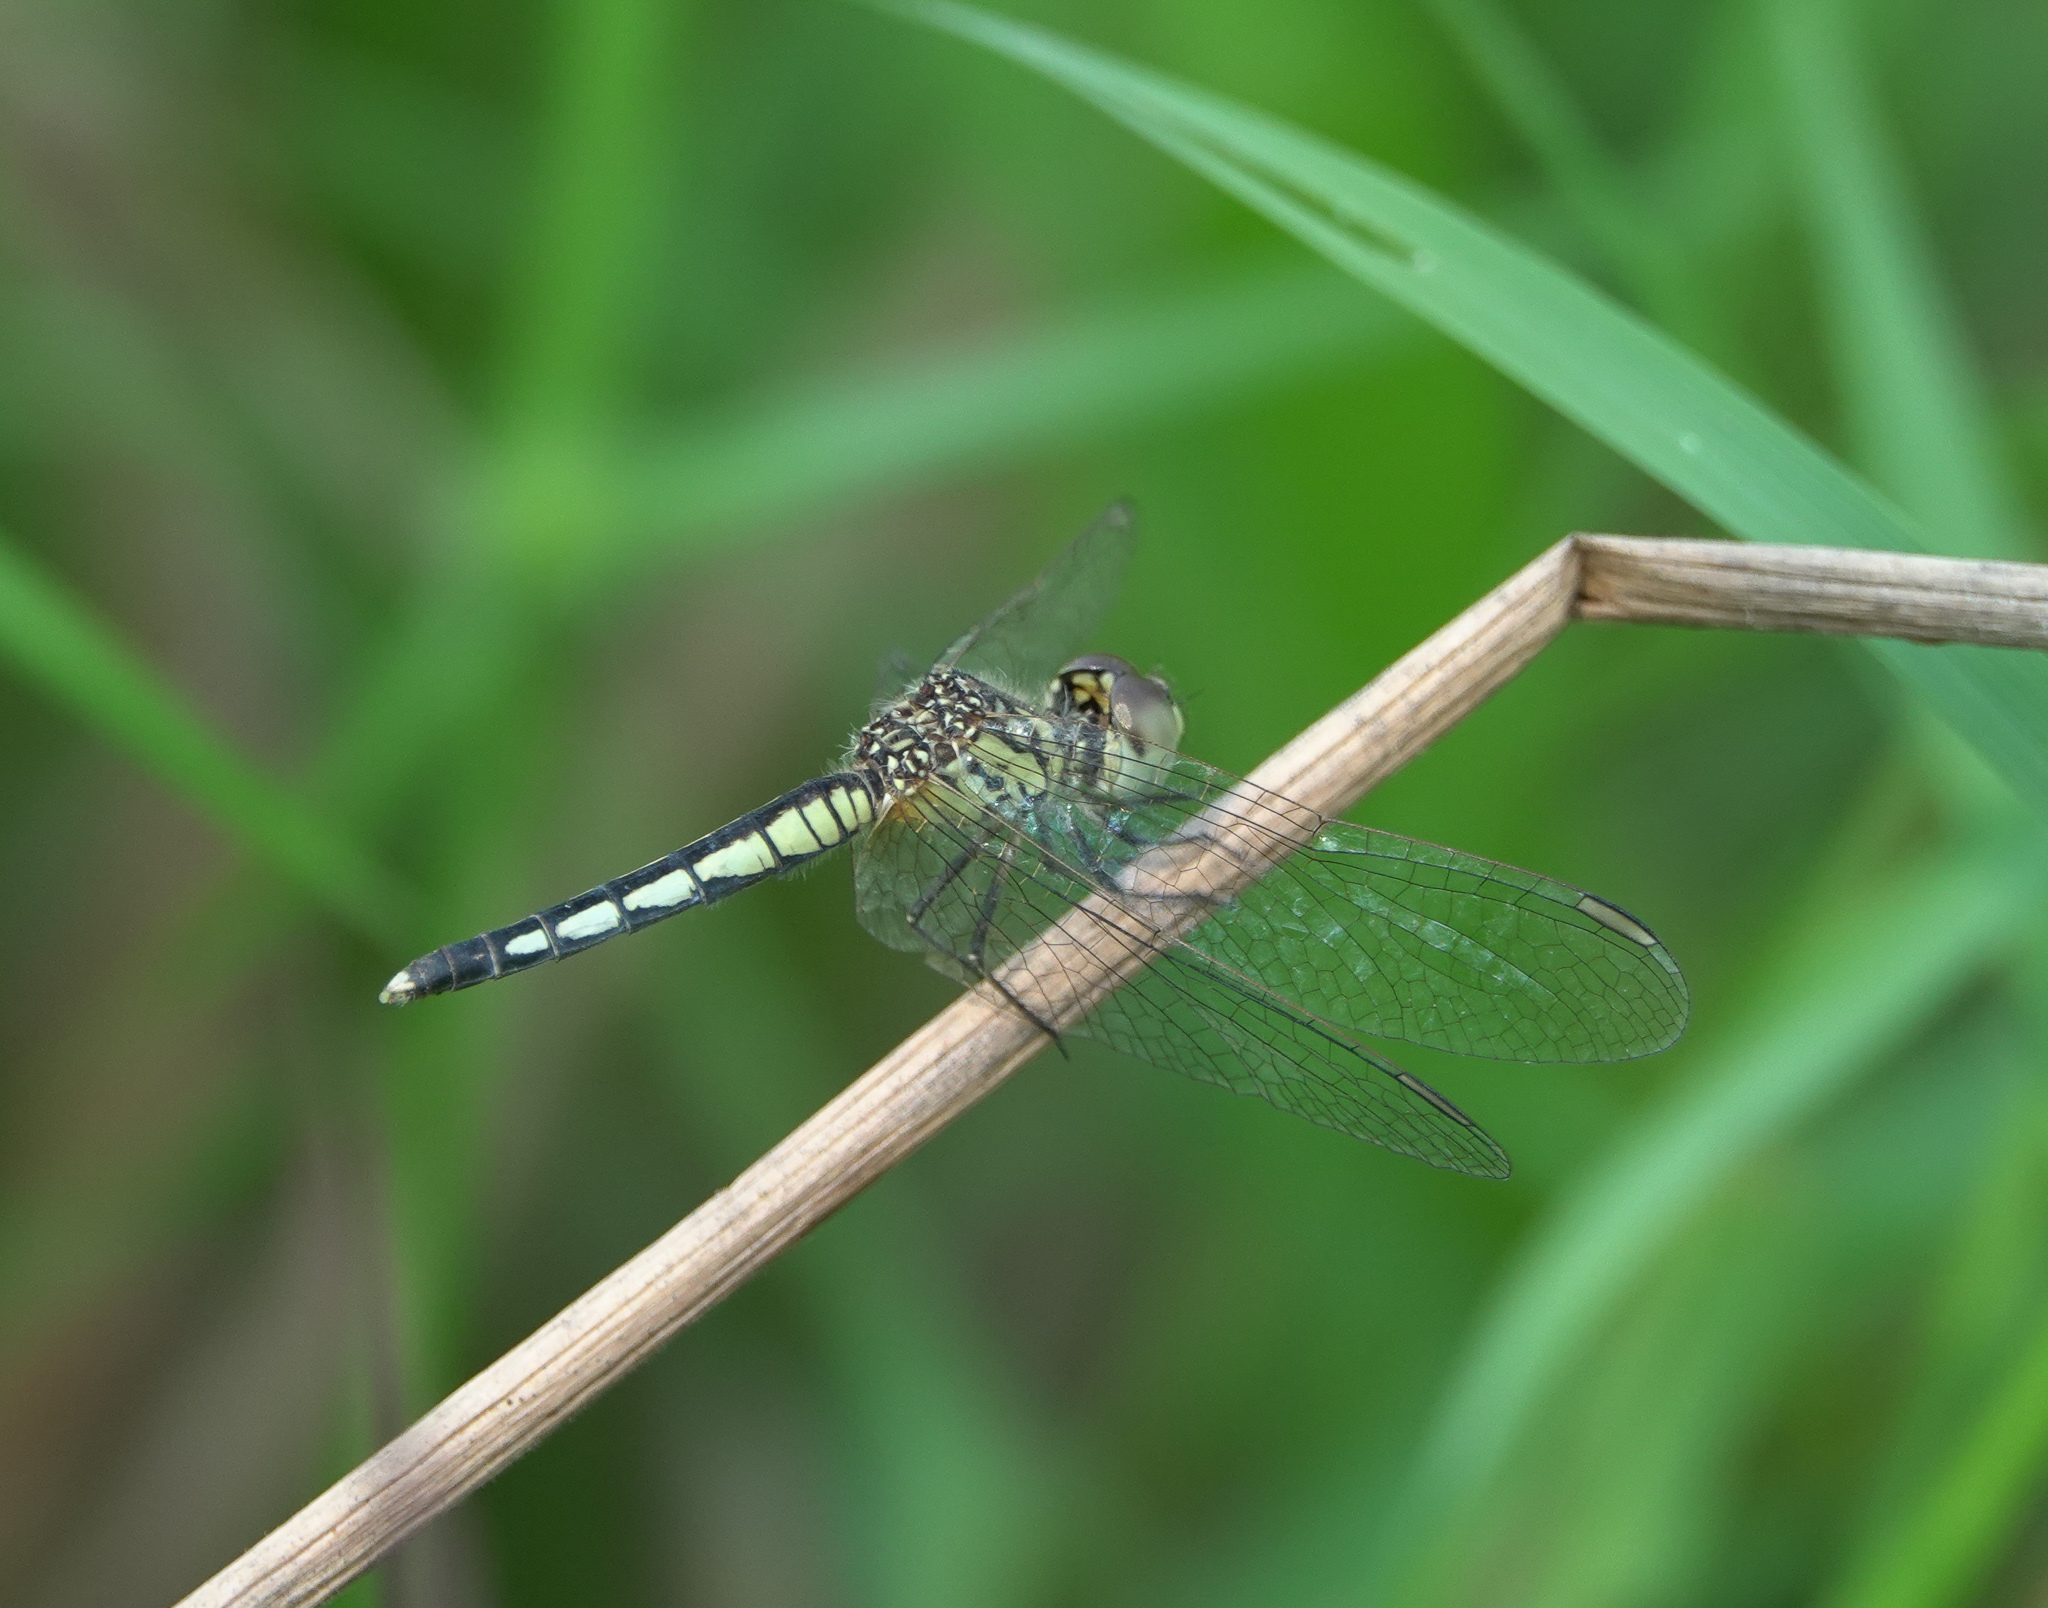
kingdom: Animalia
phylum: Arthropoda
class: Insecta
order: Odonata
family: Libellulidae
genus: Diplacodes
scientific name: Diplacodes nebulosa
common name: Black-tipped percher
